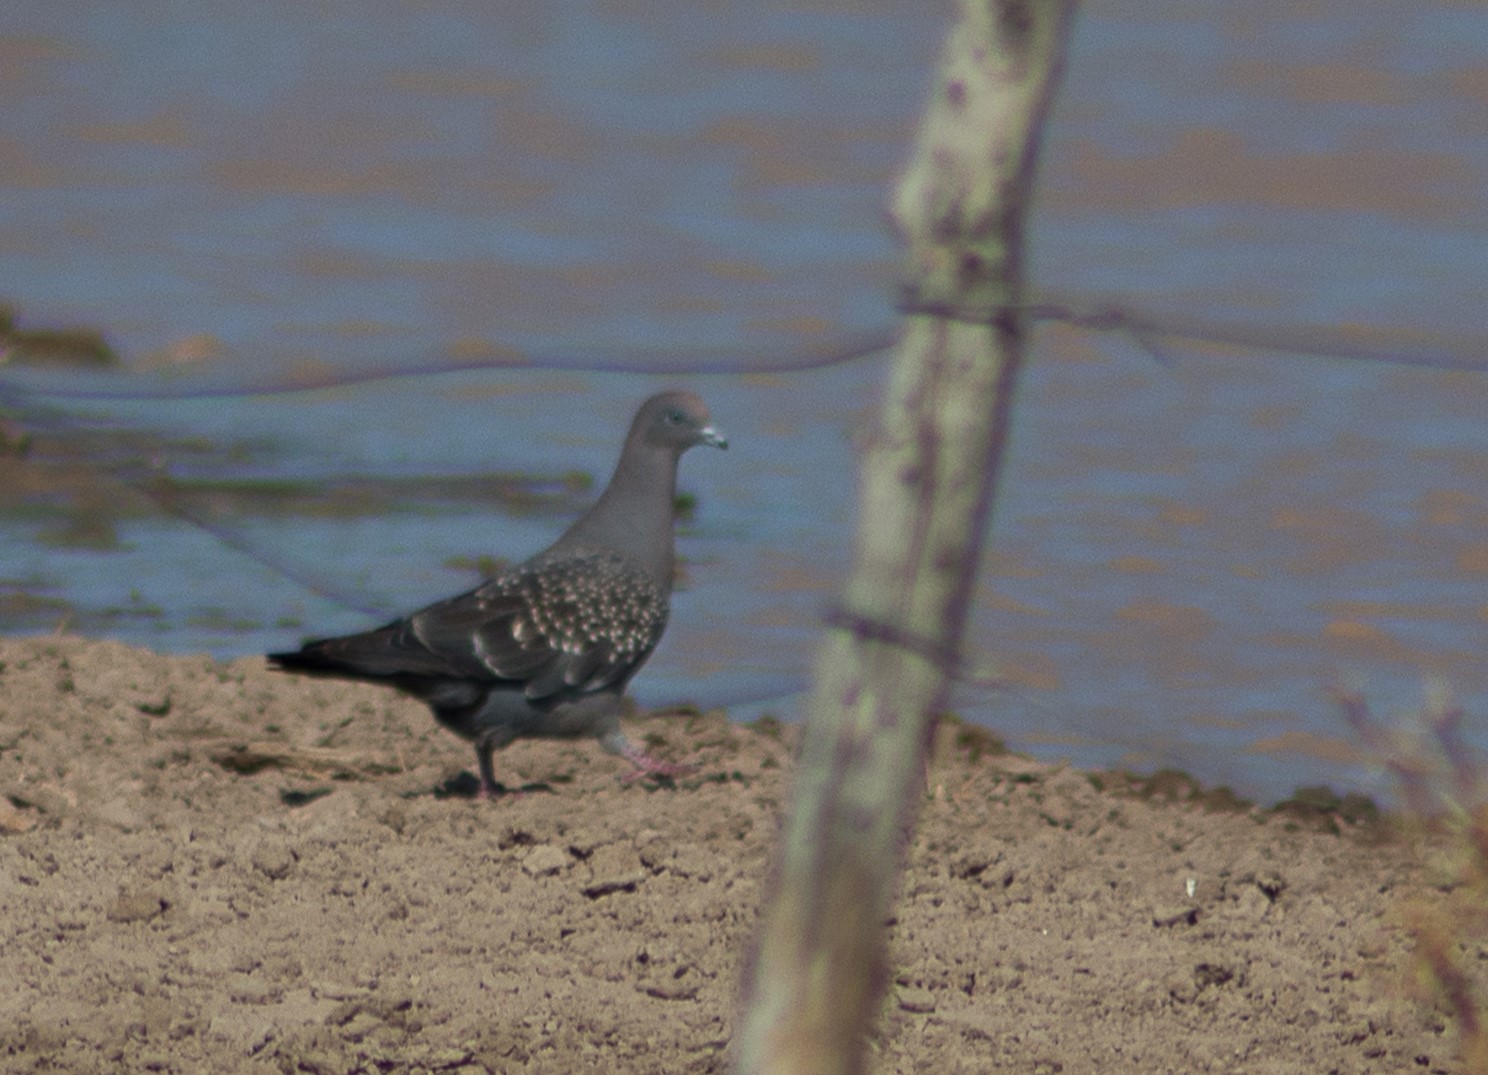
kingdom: Animalia
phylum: Chordata
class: Aves
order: Columbiformes
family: Columbidae
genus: Patagioenas
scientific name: Patagioenas maculosa
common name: Spot-winged pigeon
